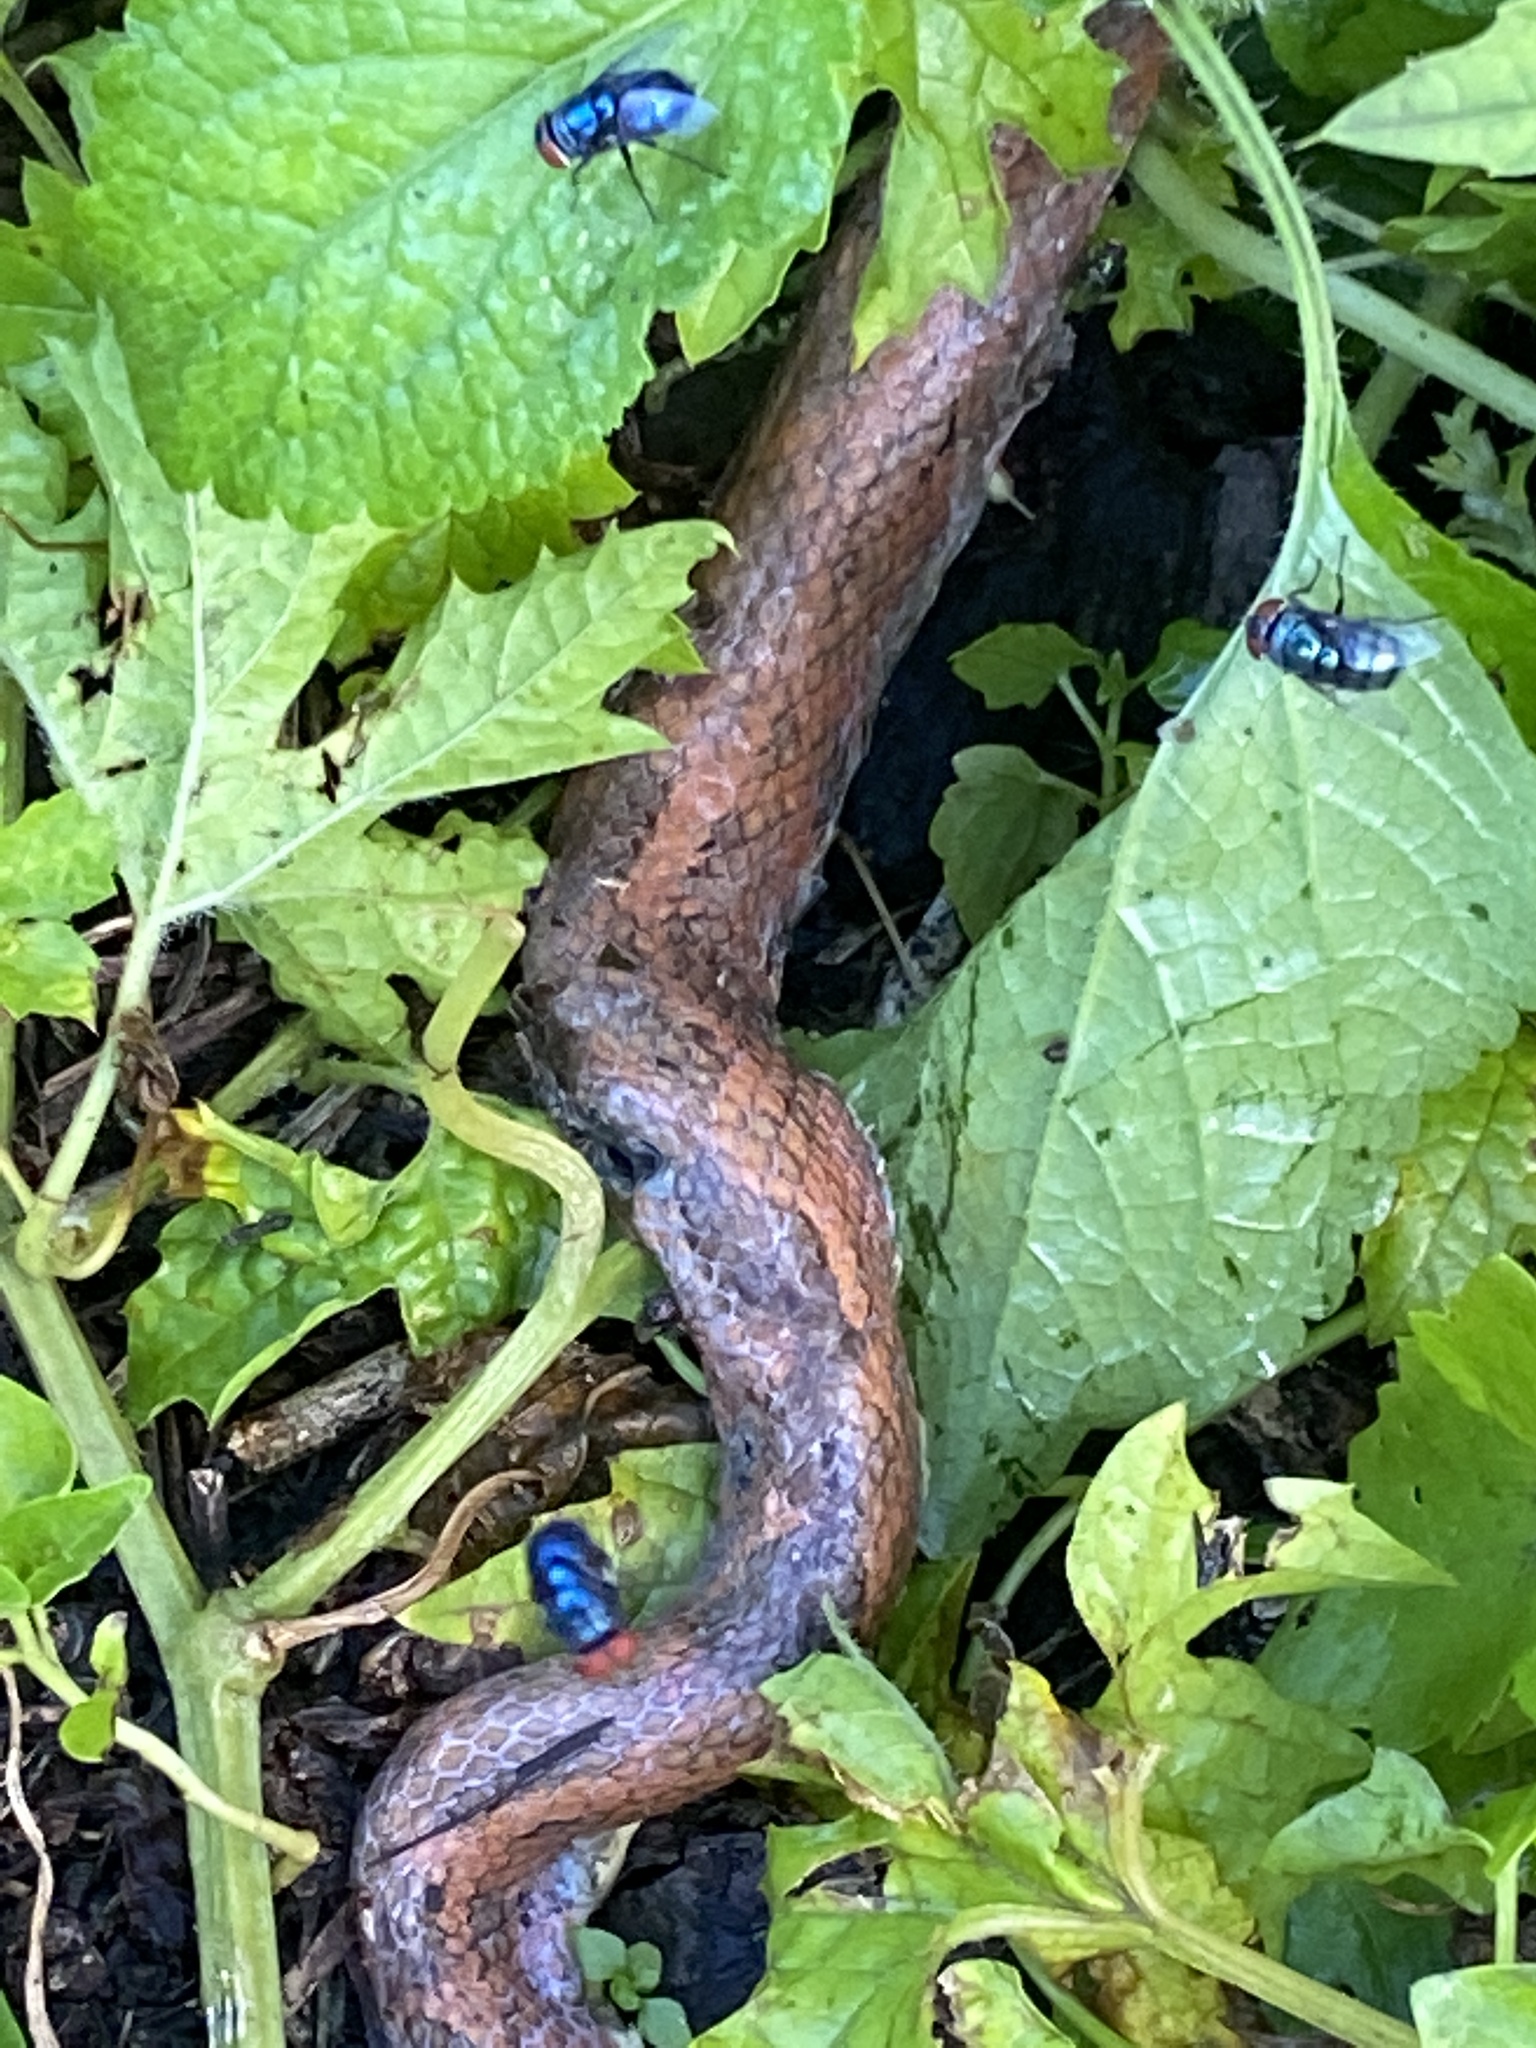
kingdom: Animalia
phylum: Chordata
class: Squamata
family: Boidae
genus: Candoia
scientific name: Candoia bibroni
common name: Fiji island boa
